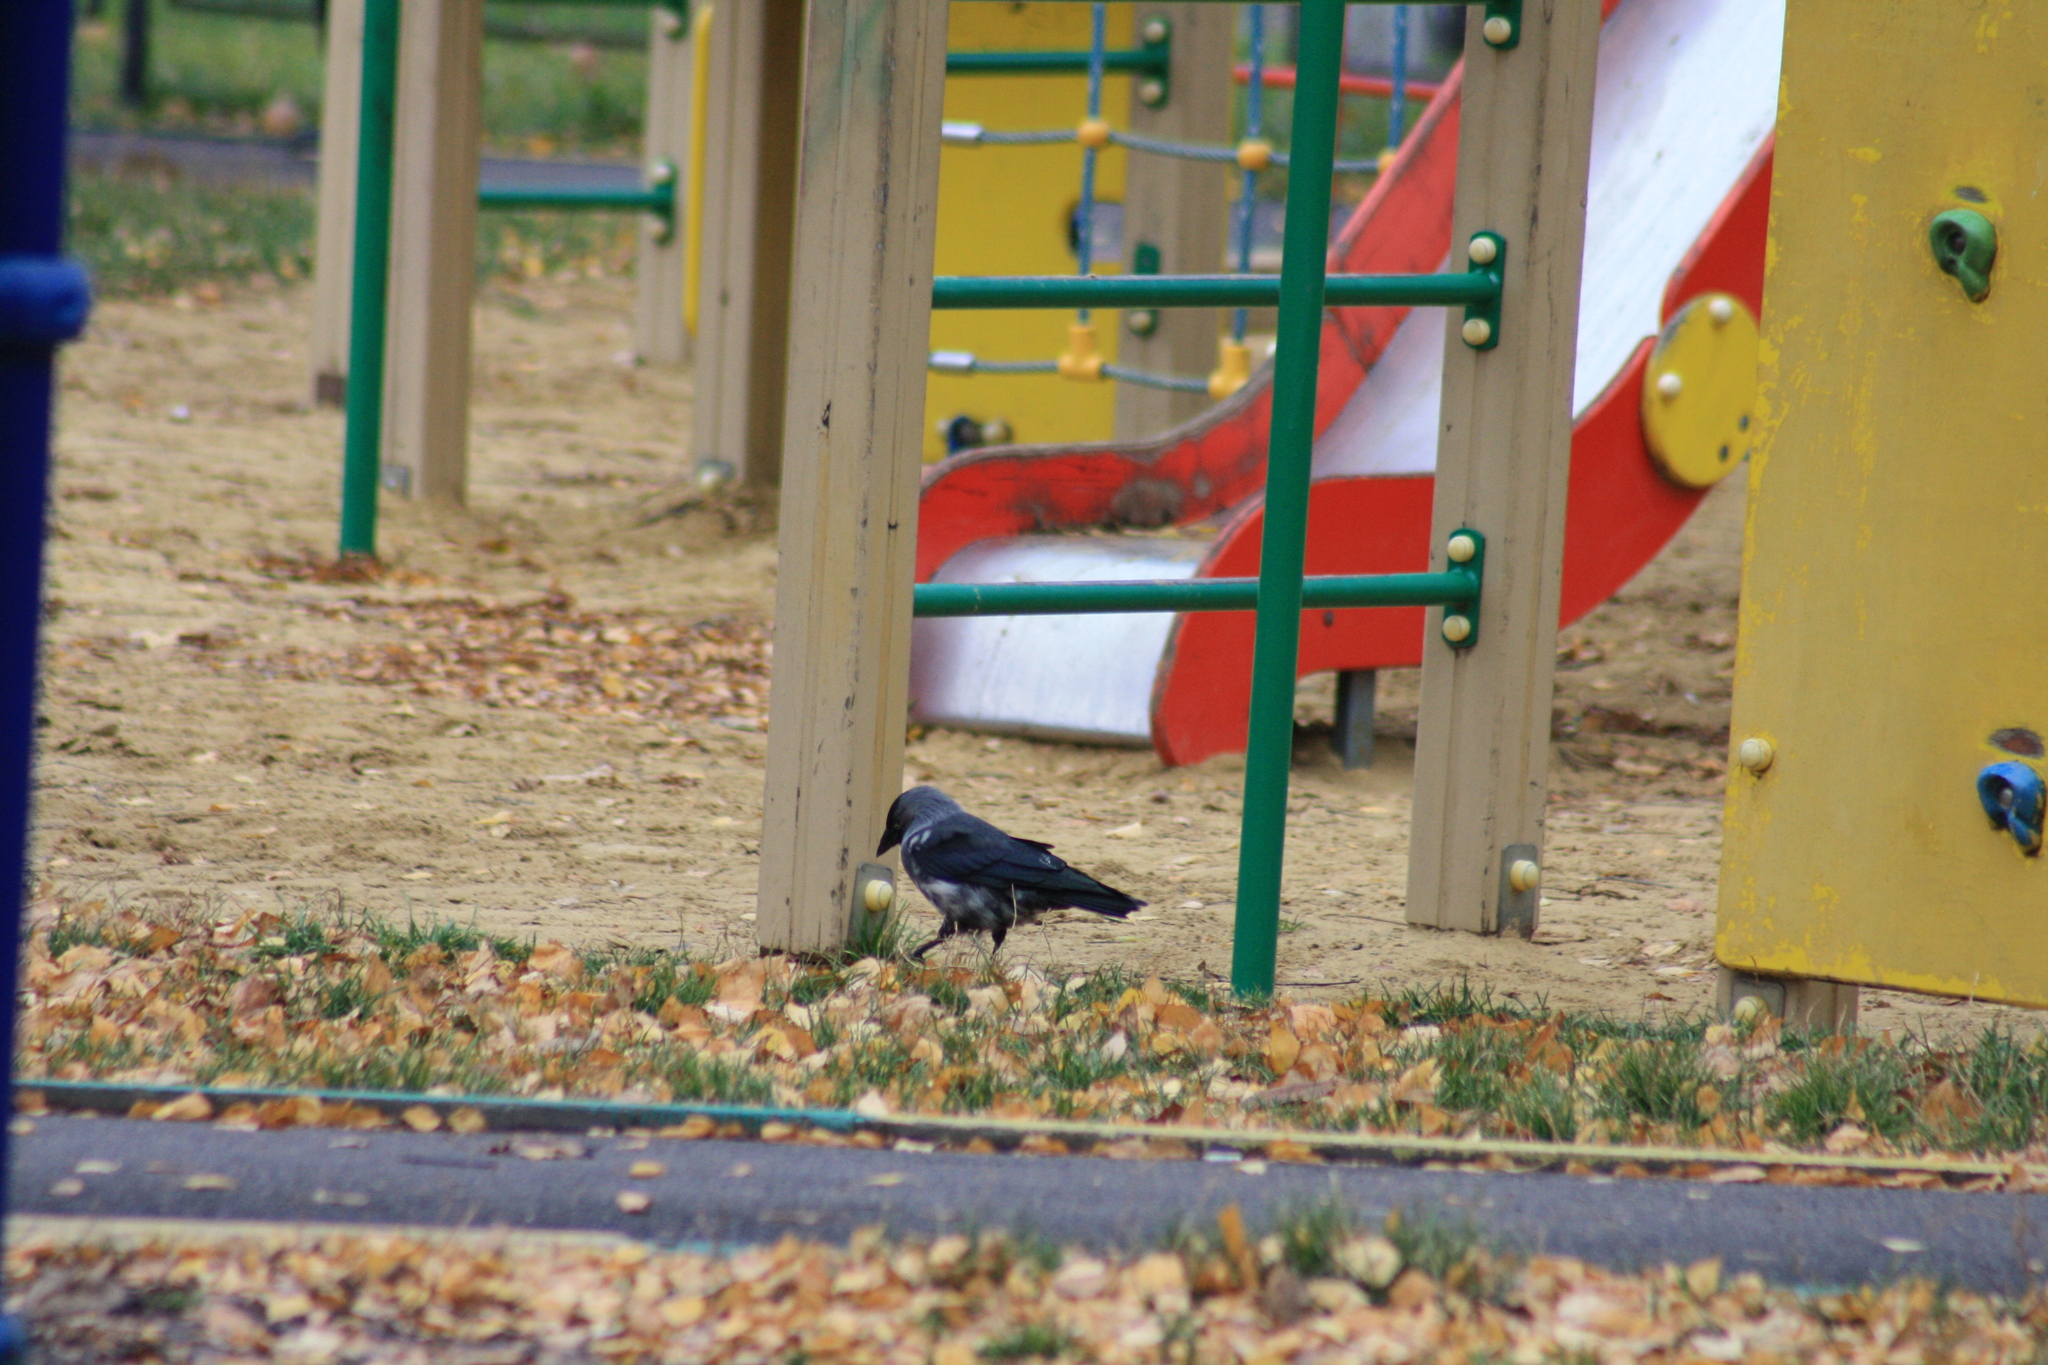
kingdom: Animalia
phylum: Chordata
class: Aves
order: Passeriformes
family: Corvidae
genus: Coloeus
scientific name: Coloeus monedula
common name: Western jackdaw
